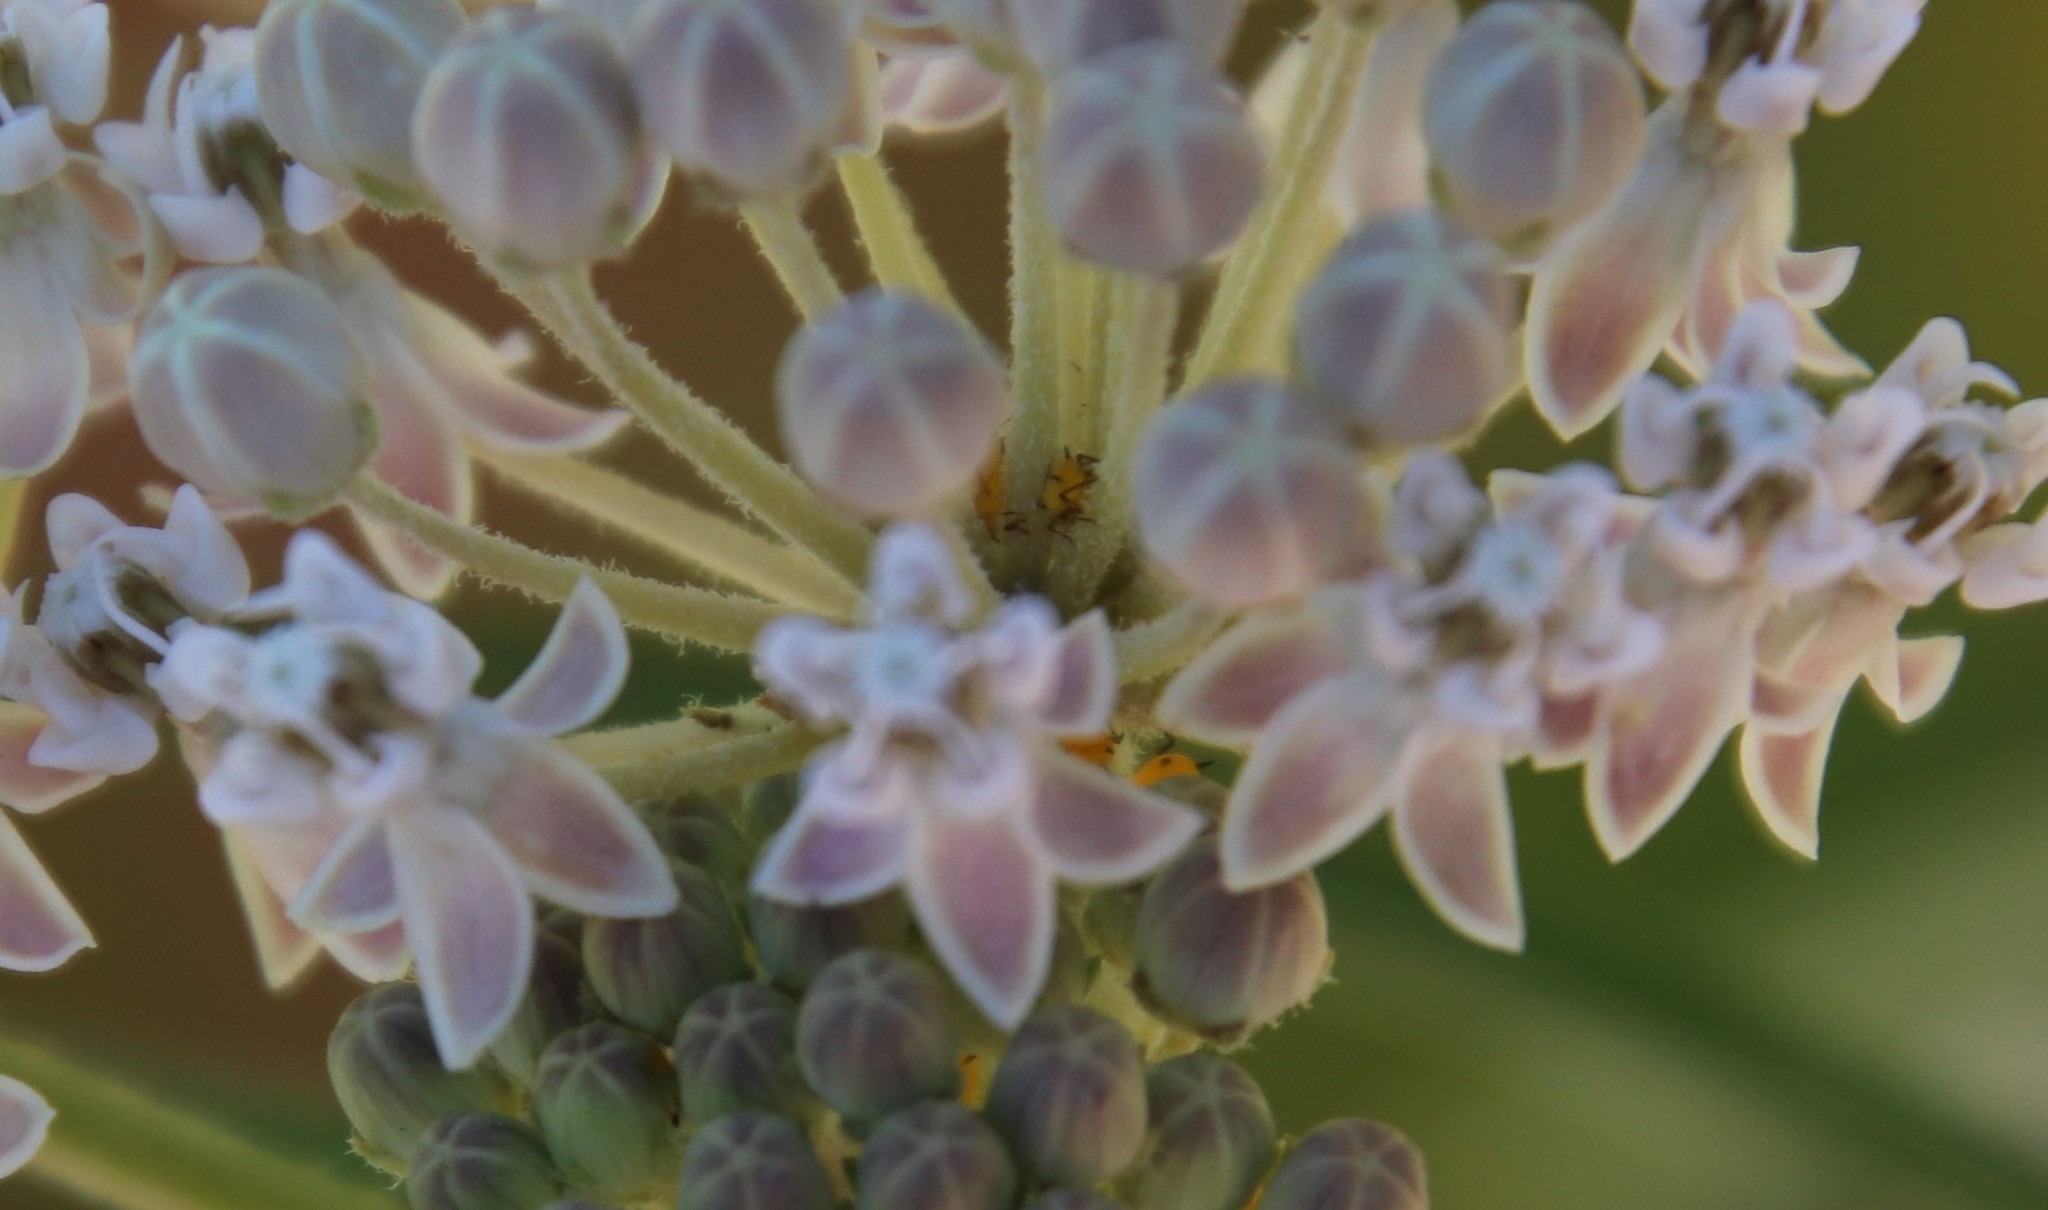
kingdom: Animalia
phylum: Arthropoda
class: Insecta
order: Hemiptera
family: Aphididae
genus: Aphis
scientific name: Aphis nerii
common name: Oleander aphid
